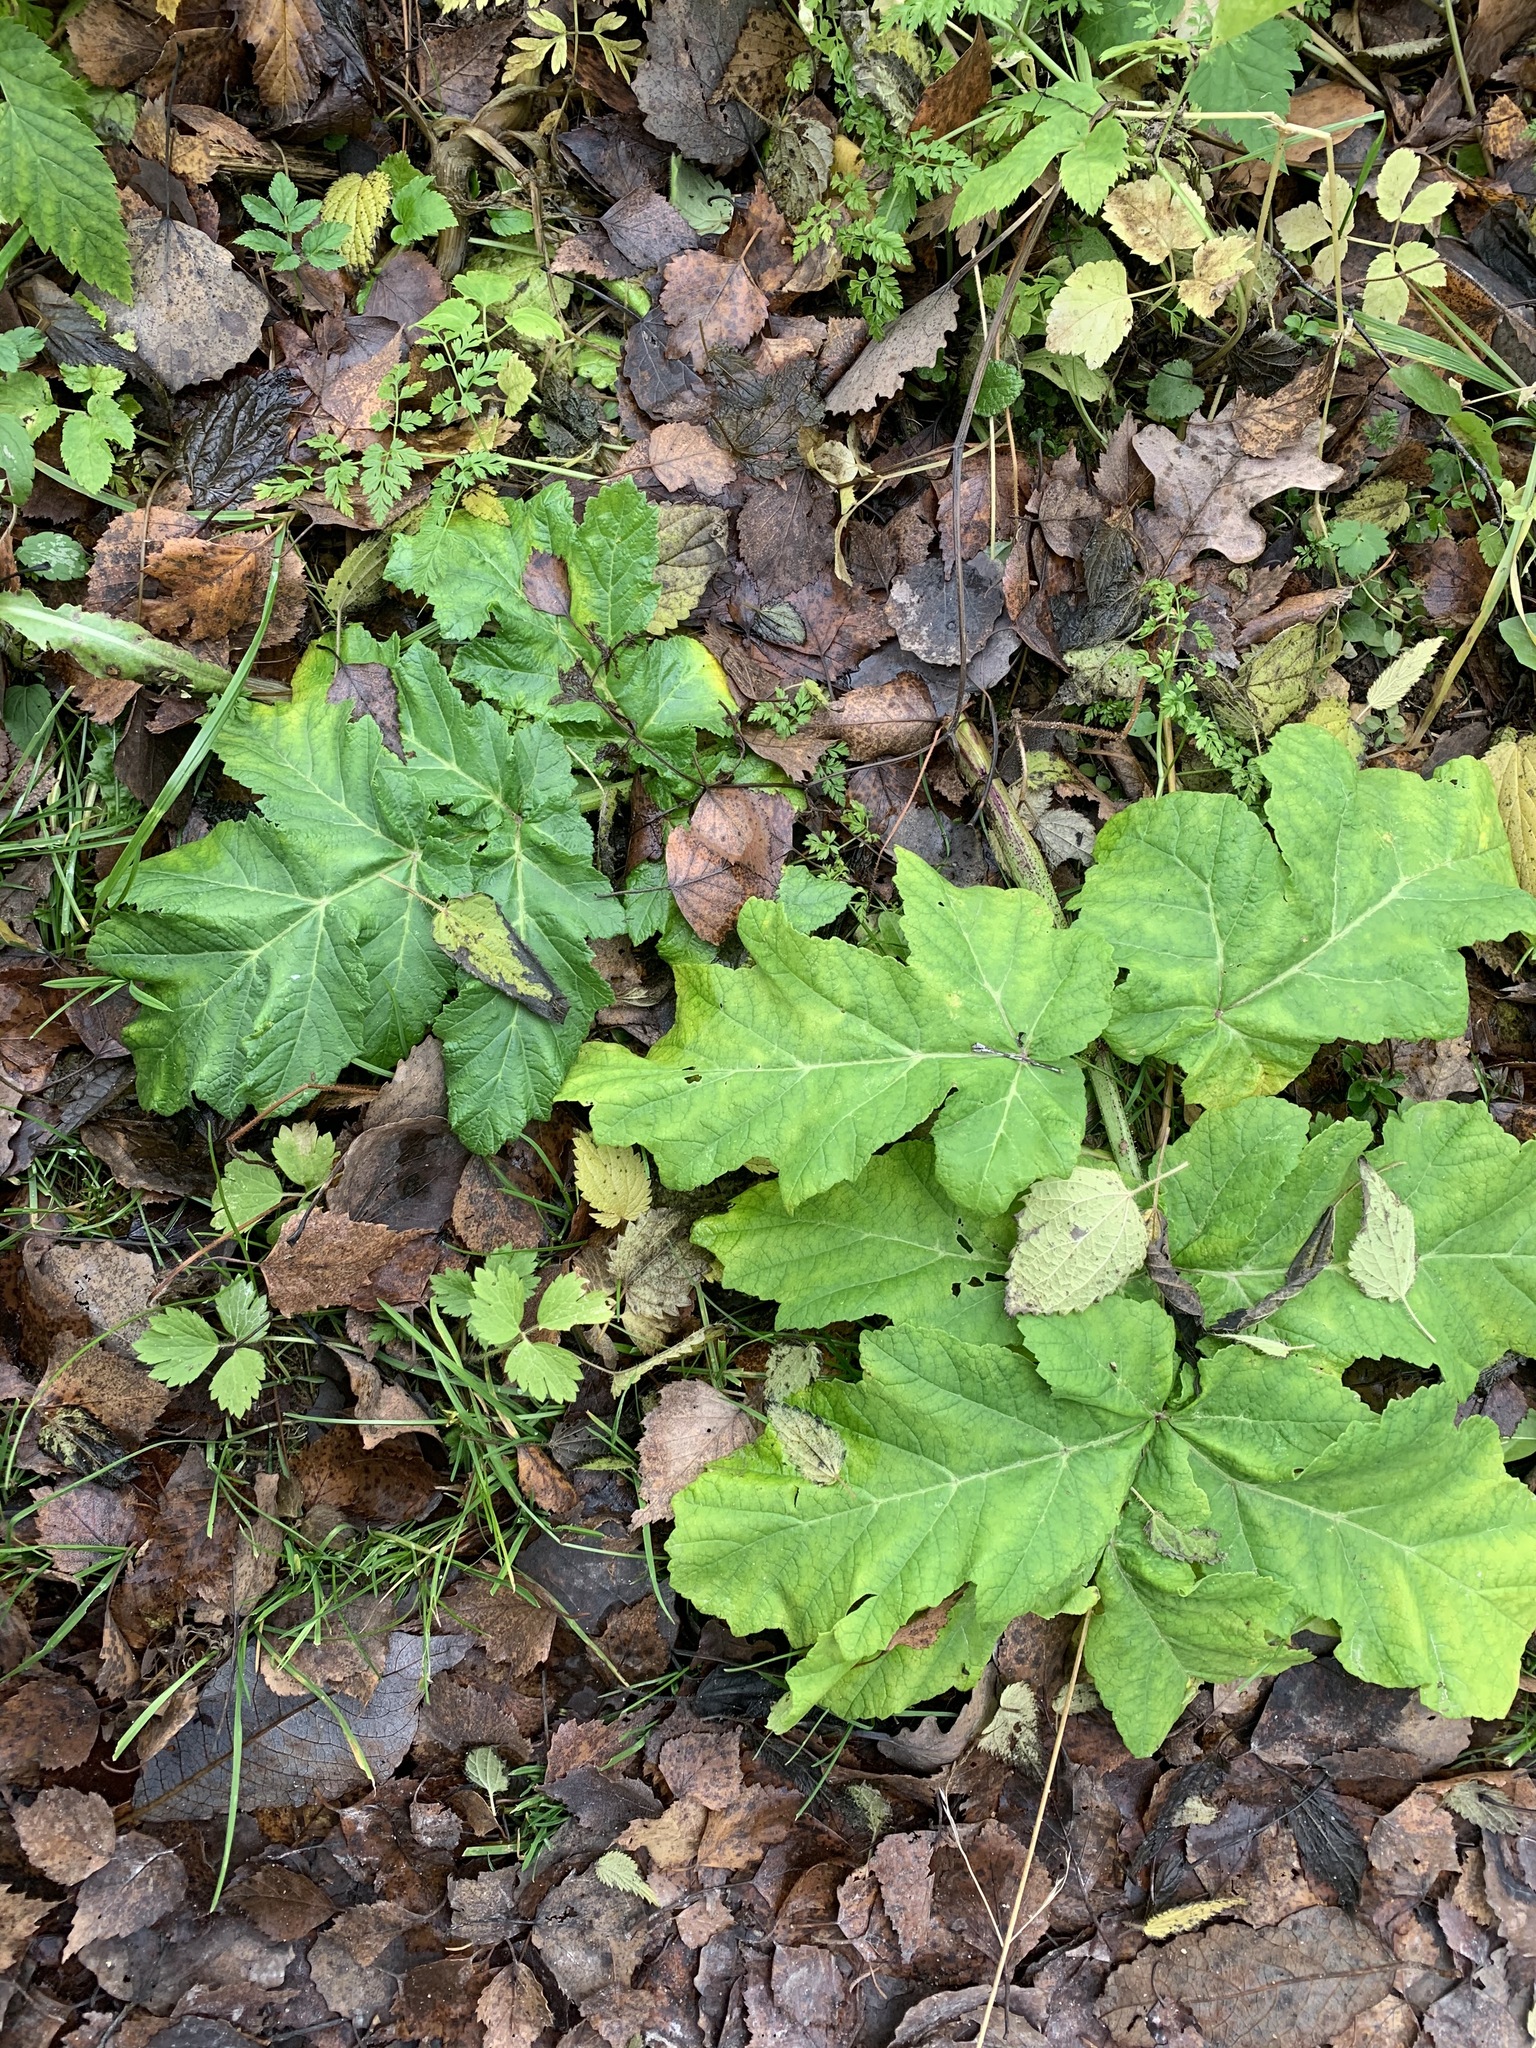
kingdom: Plantae
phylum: Tracheophyta
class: Magnoliopsida
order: Apiales
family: Apiaceae
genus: Heracleum
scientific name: Heracleum sosnowskyi
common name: Sosnowsky's hogweed
